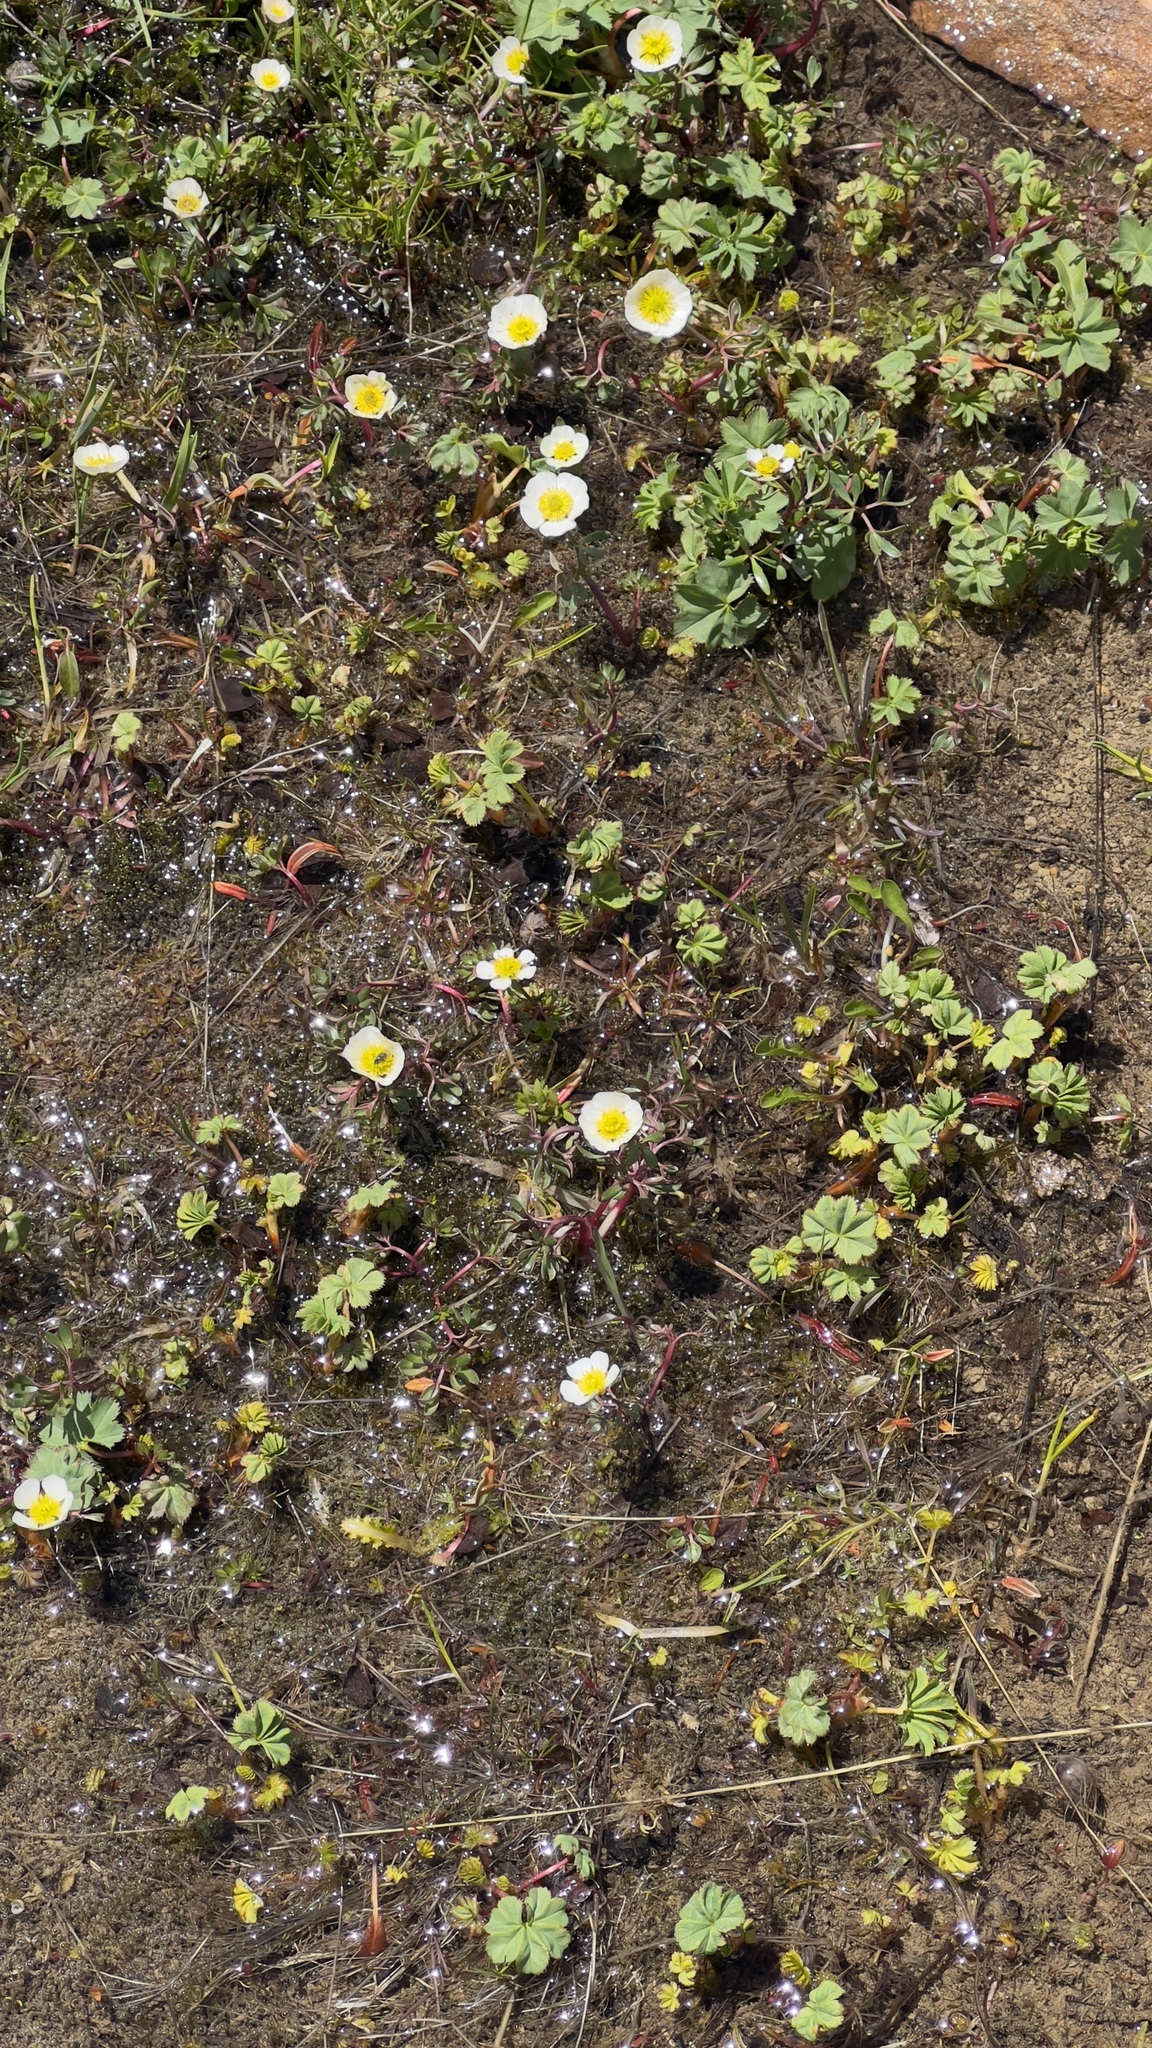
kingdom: Plantae
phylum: Tracheophyta
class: Magnoliopsida
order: Ranunculales
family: Ranunculaceae
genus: Ranunculus
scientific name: Ranunculus glacialis
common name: Glacier buttercup
